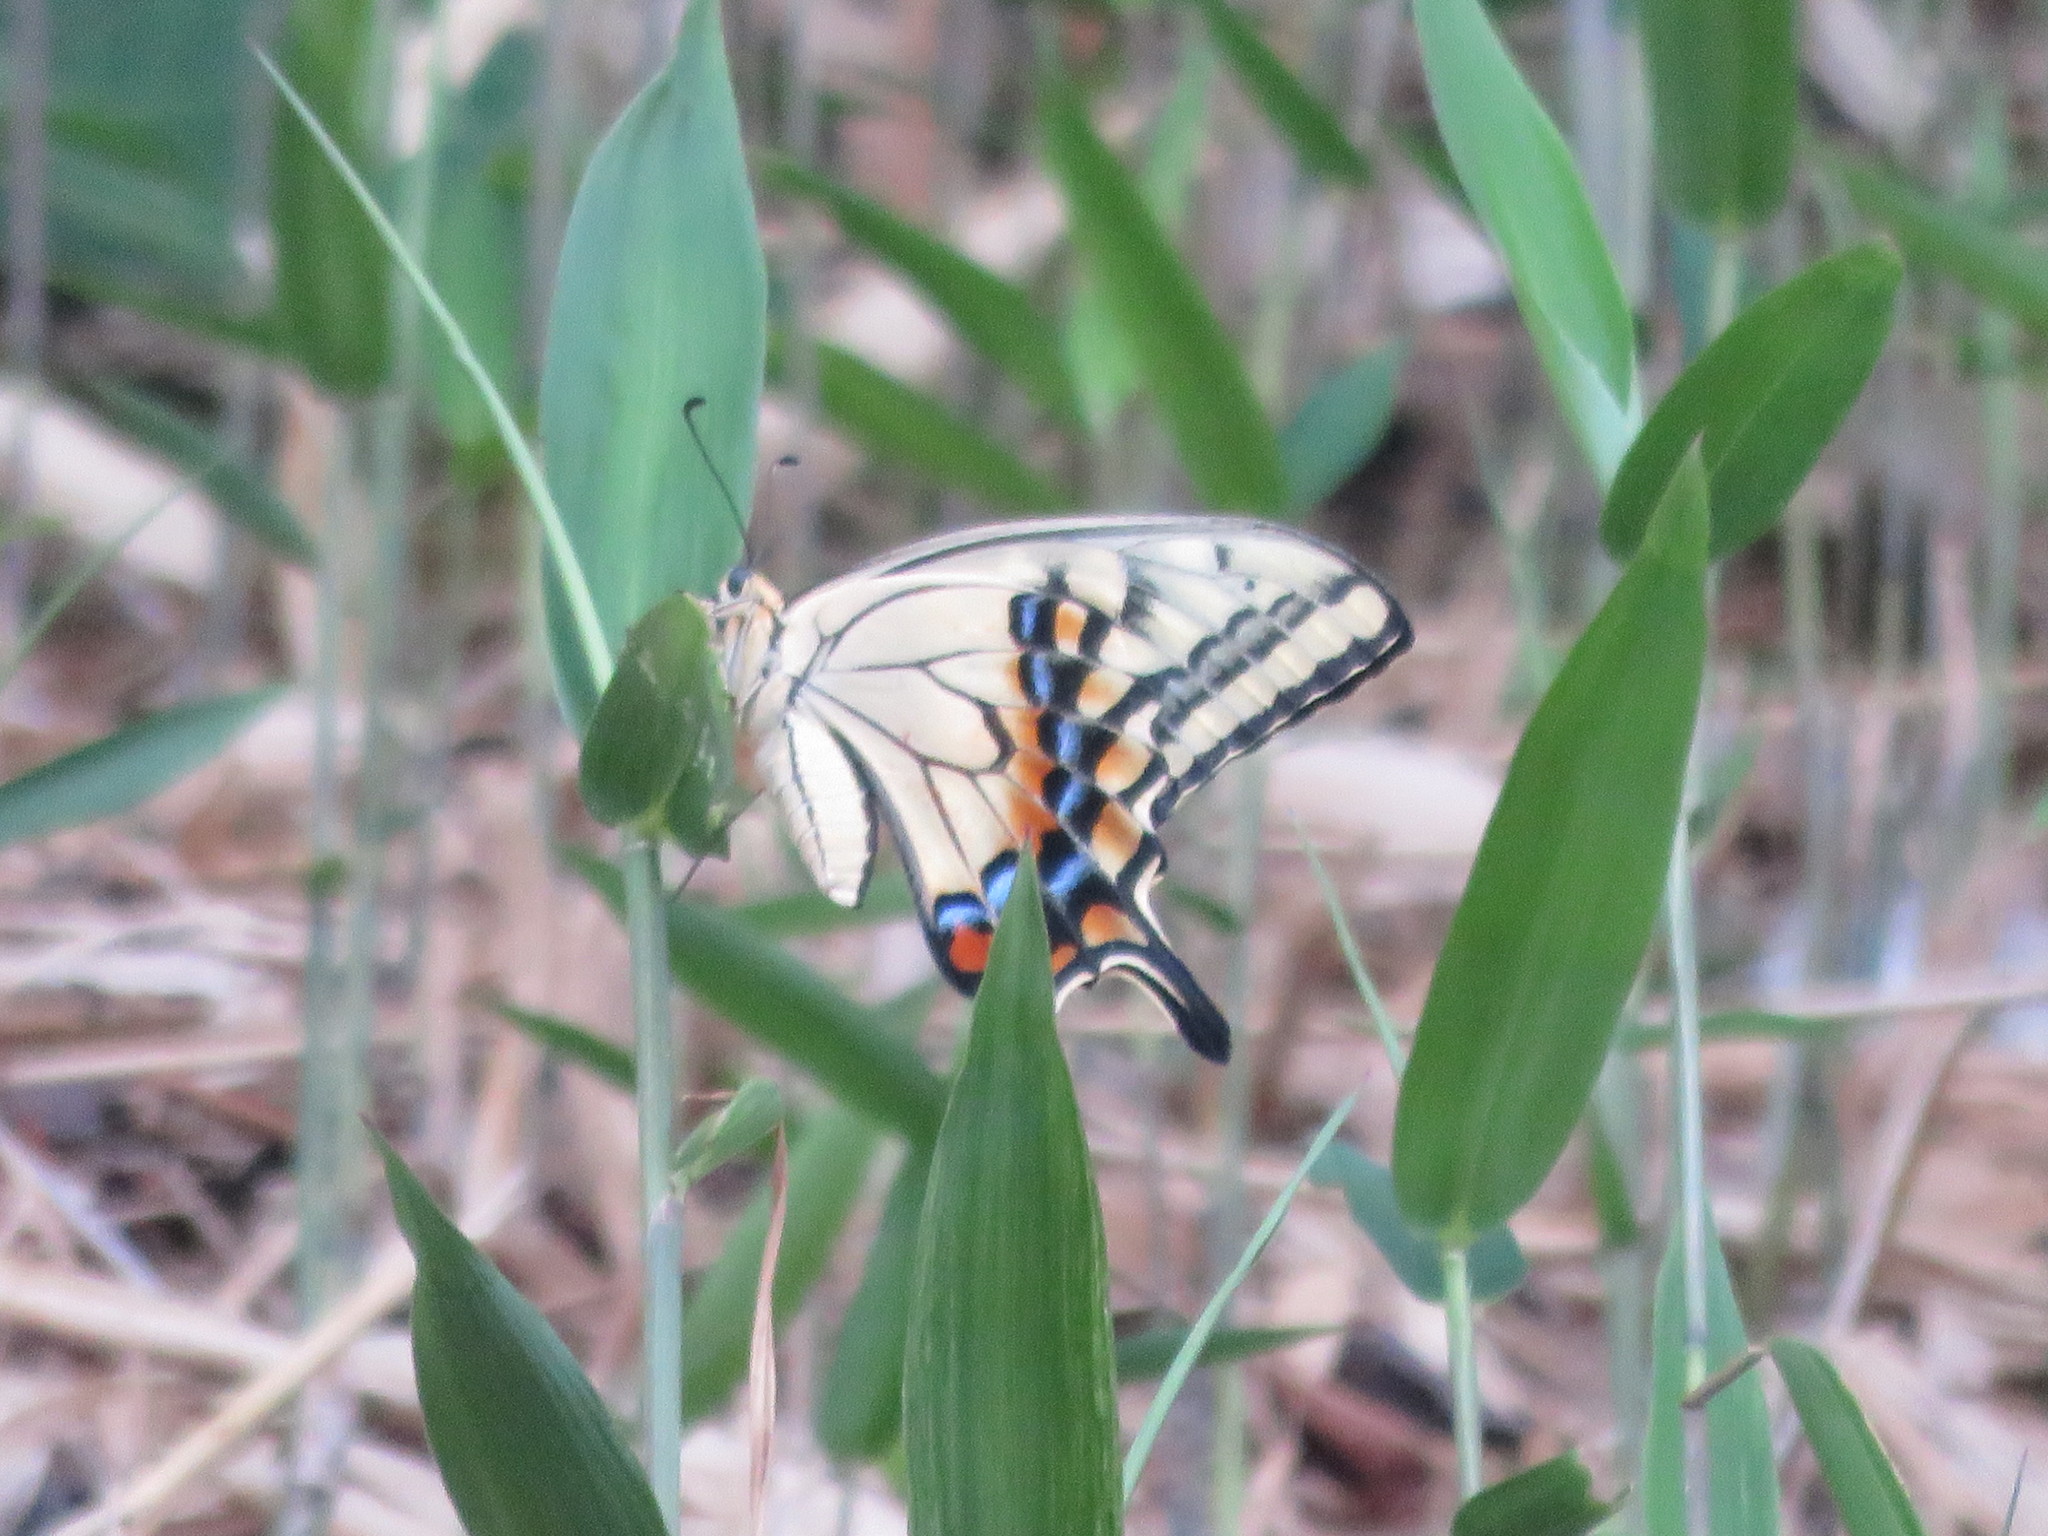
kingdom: Animalia
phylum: Arthropoda
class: Insecta
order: Lepidoptera
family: Papilionidae
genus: Papilio
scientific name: Papilio machaon
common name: Swallowtail
